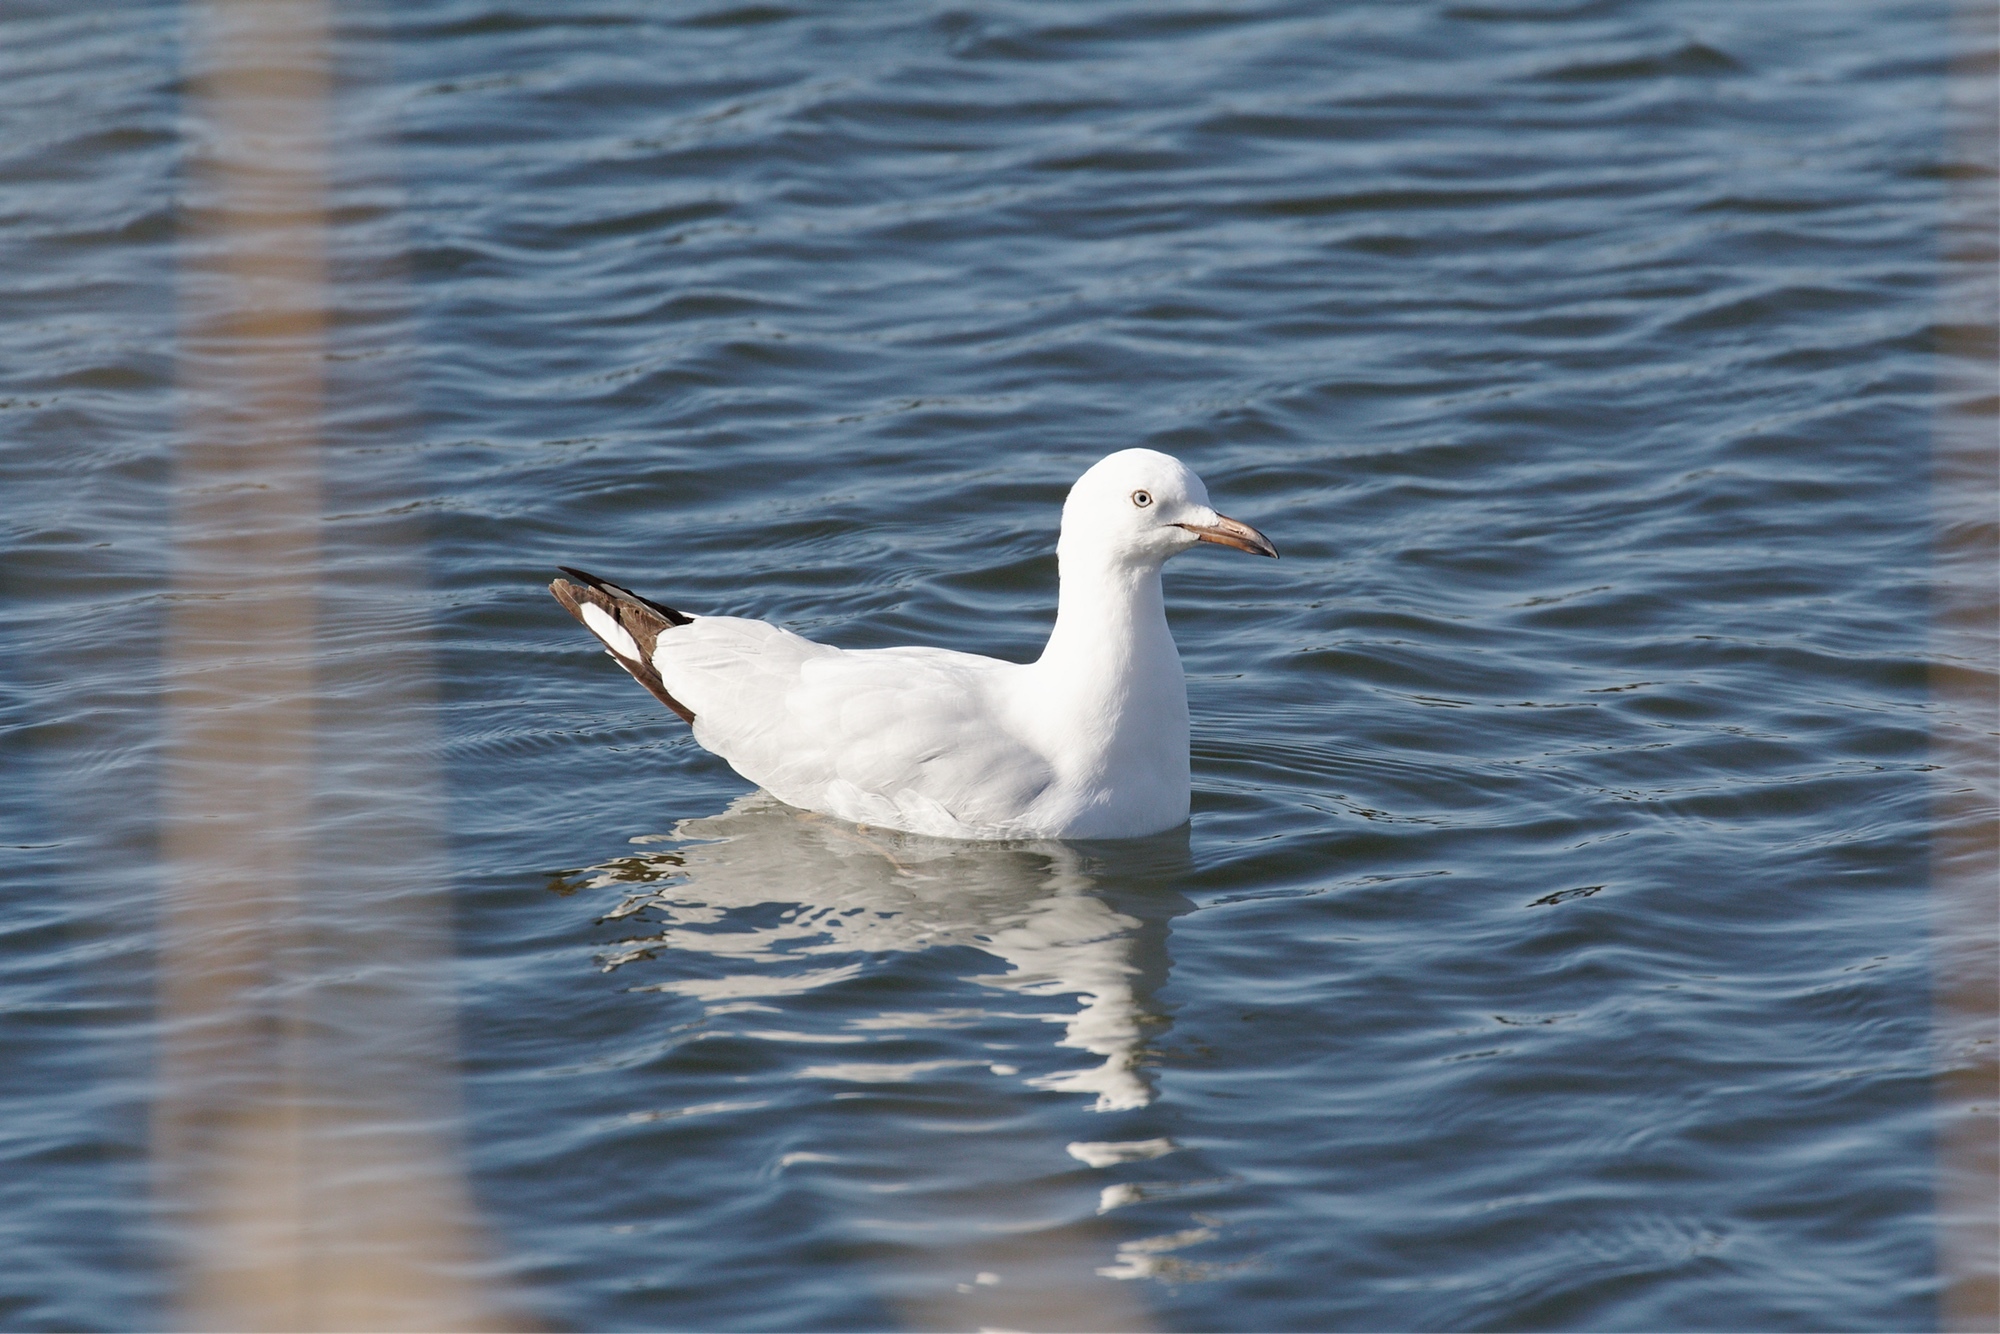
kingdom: Animalia
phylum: Chordata
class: Aves
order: Charadriiformes
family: Laridae
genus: Chroicocephalus
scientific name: Chroicocephalus novaehollandiae
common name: Silver gull
